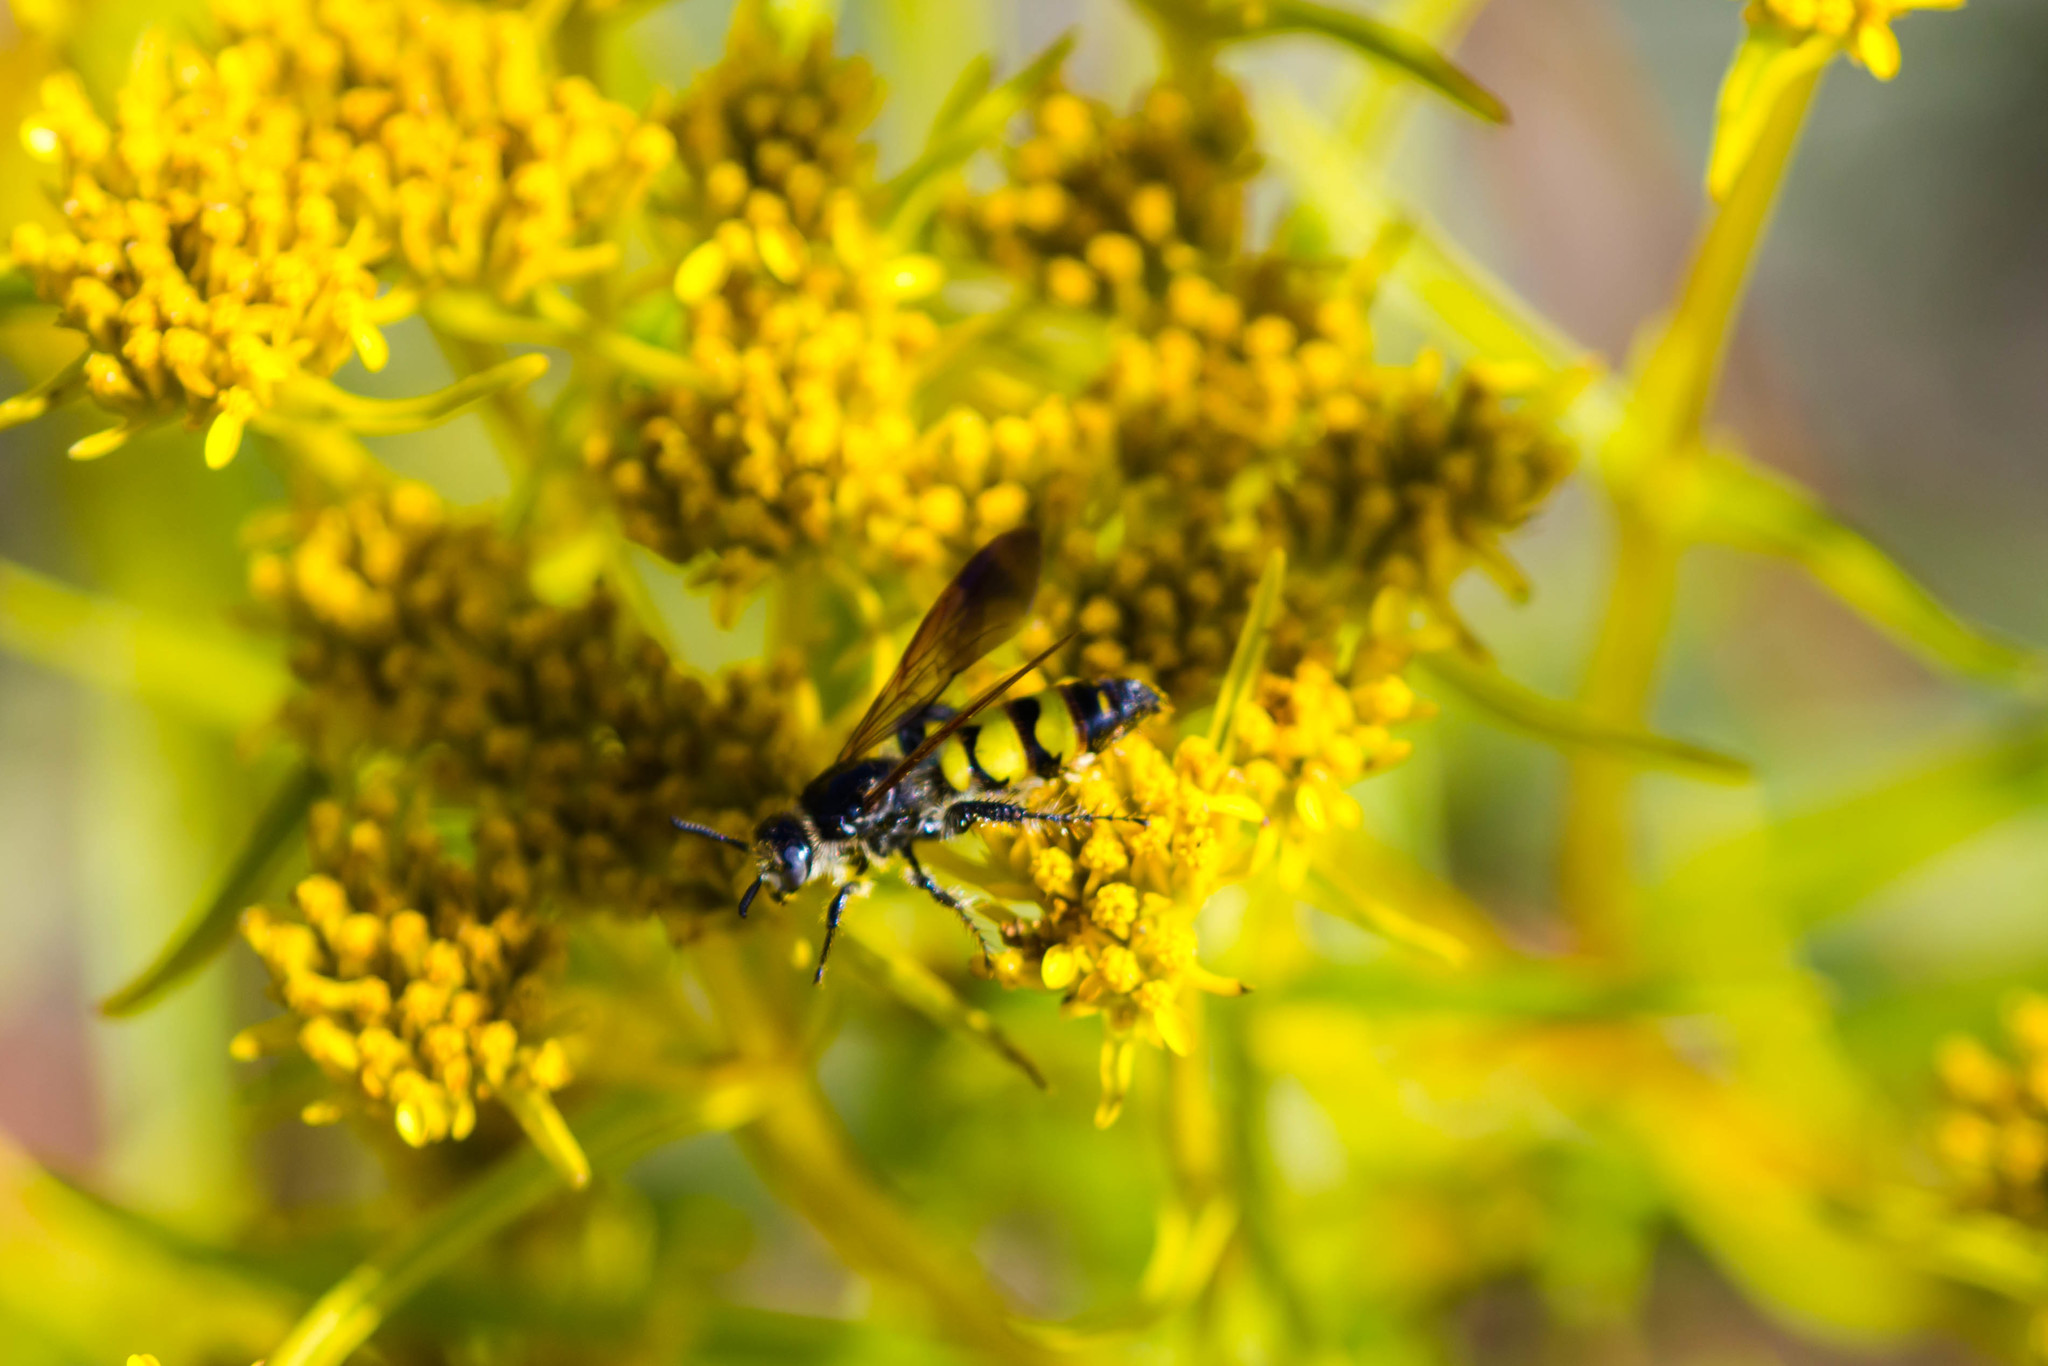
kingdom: Animalia
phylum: Arthropoda
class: Insecta
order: Hymenoptera
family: Scoliidae
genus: Dielis
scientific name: Dielis
